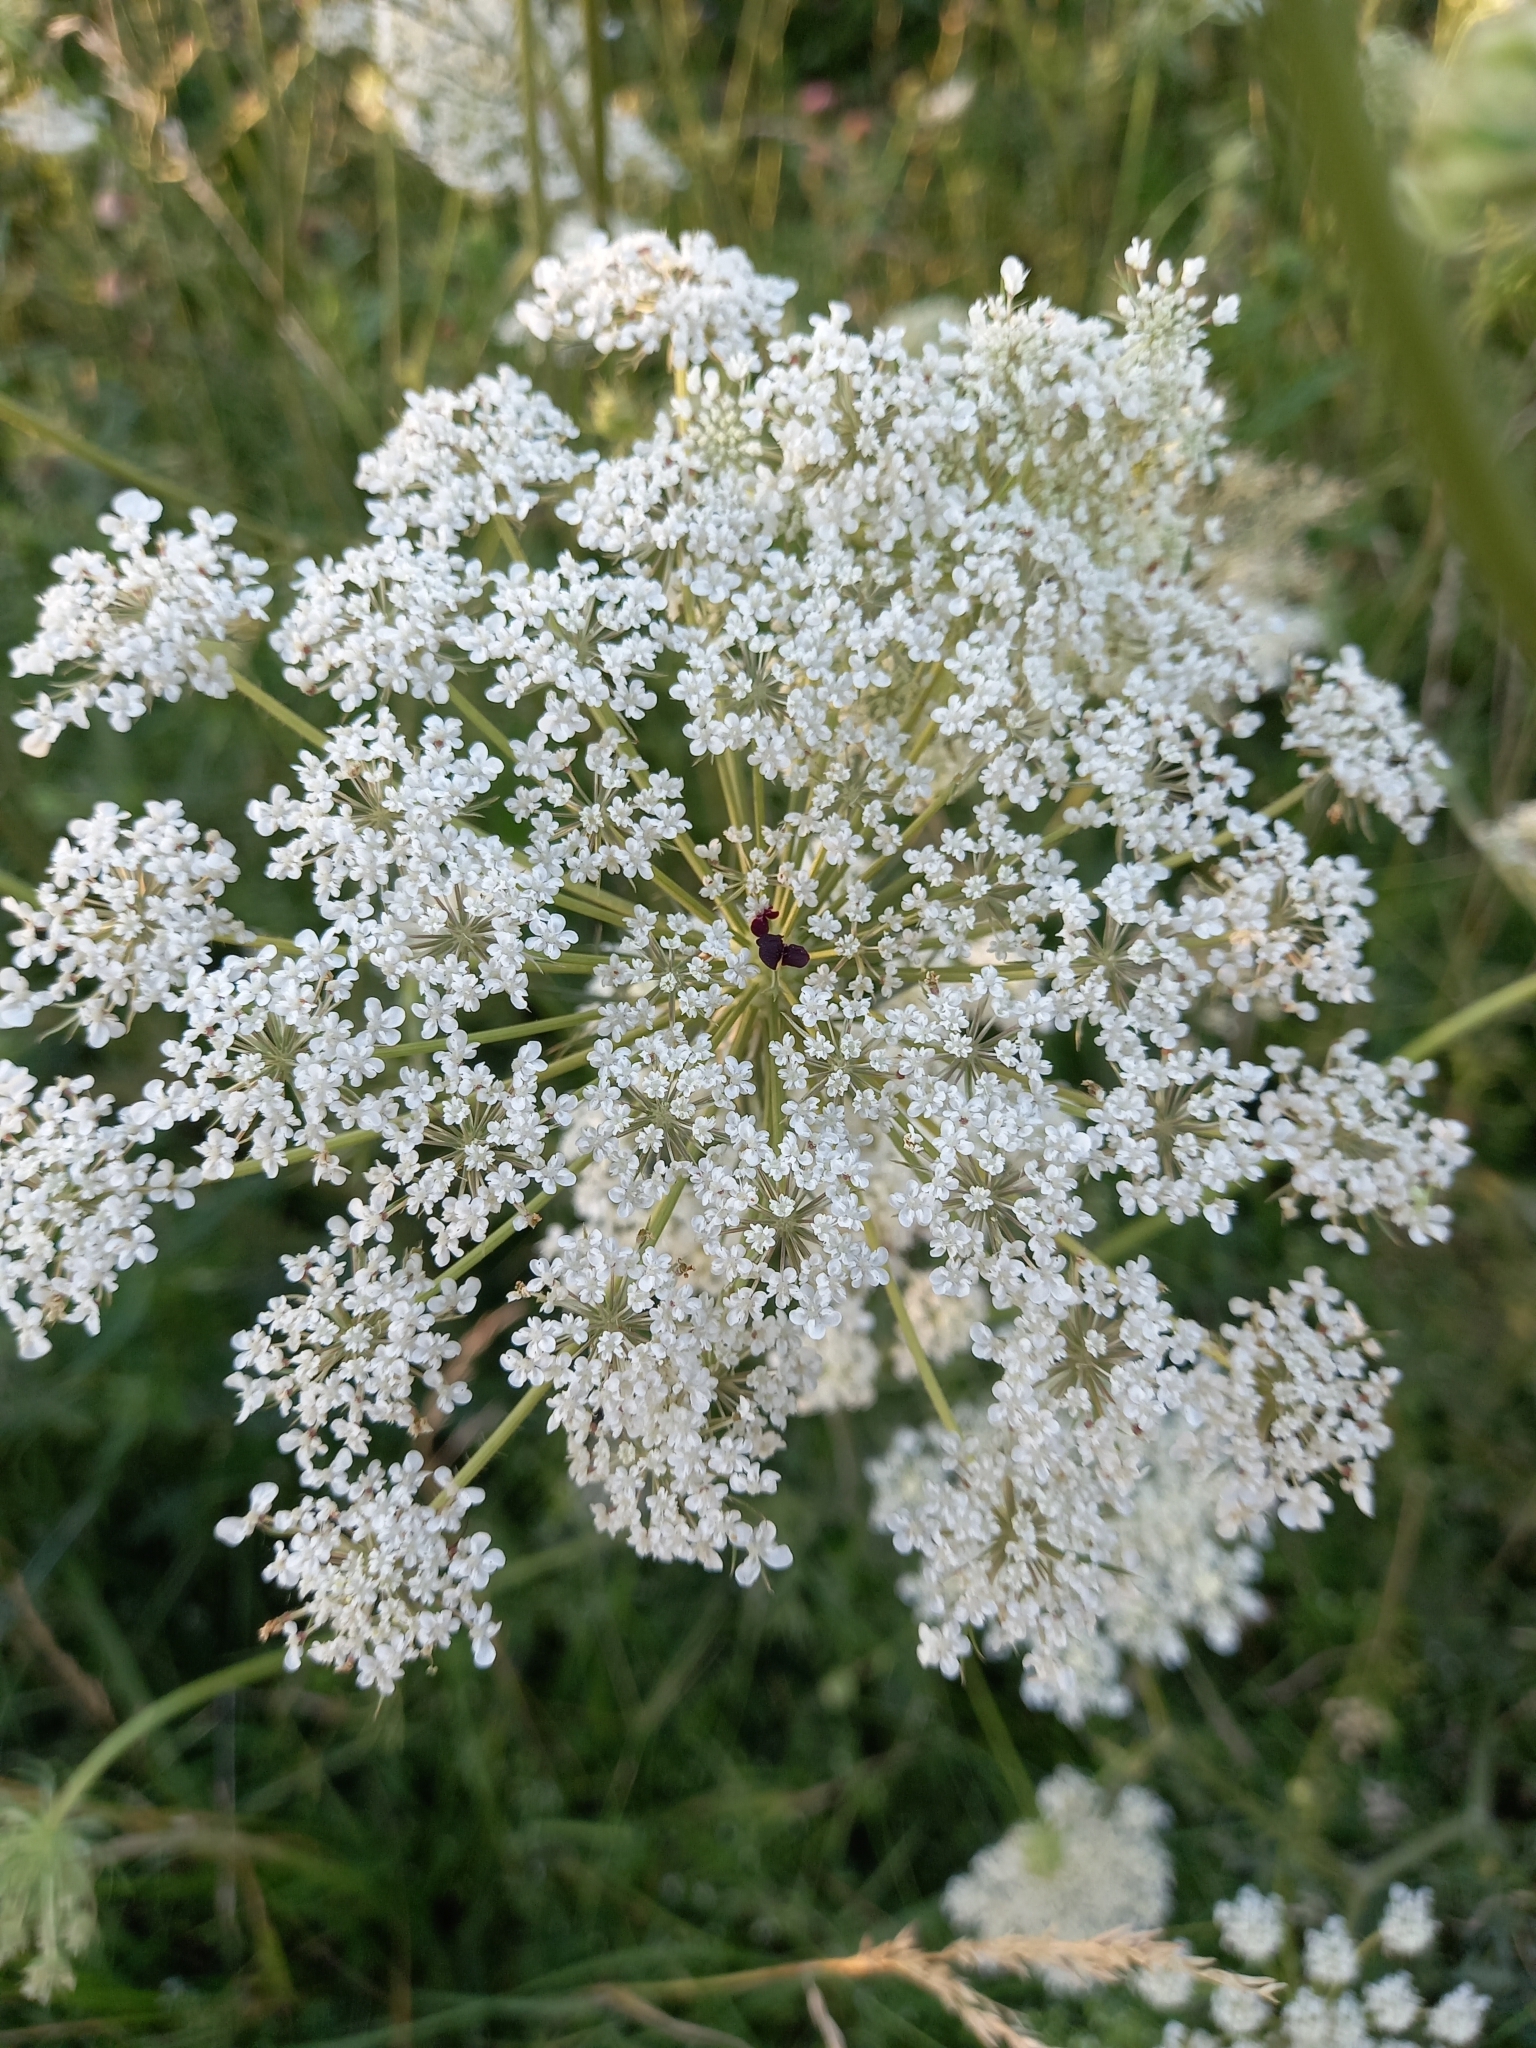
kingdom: Plantae
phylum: Tracheophyta
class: Magnoliopsida
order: Apiales
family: Apiaceae
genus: Daucus
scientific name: Daucus carota
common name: Wild carrot
